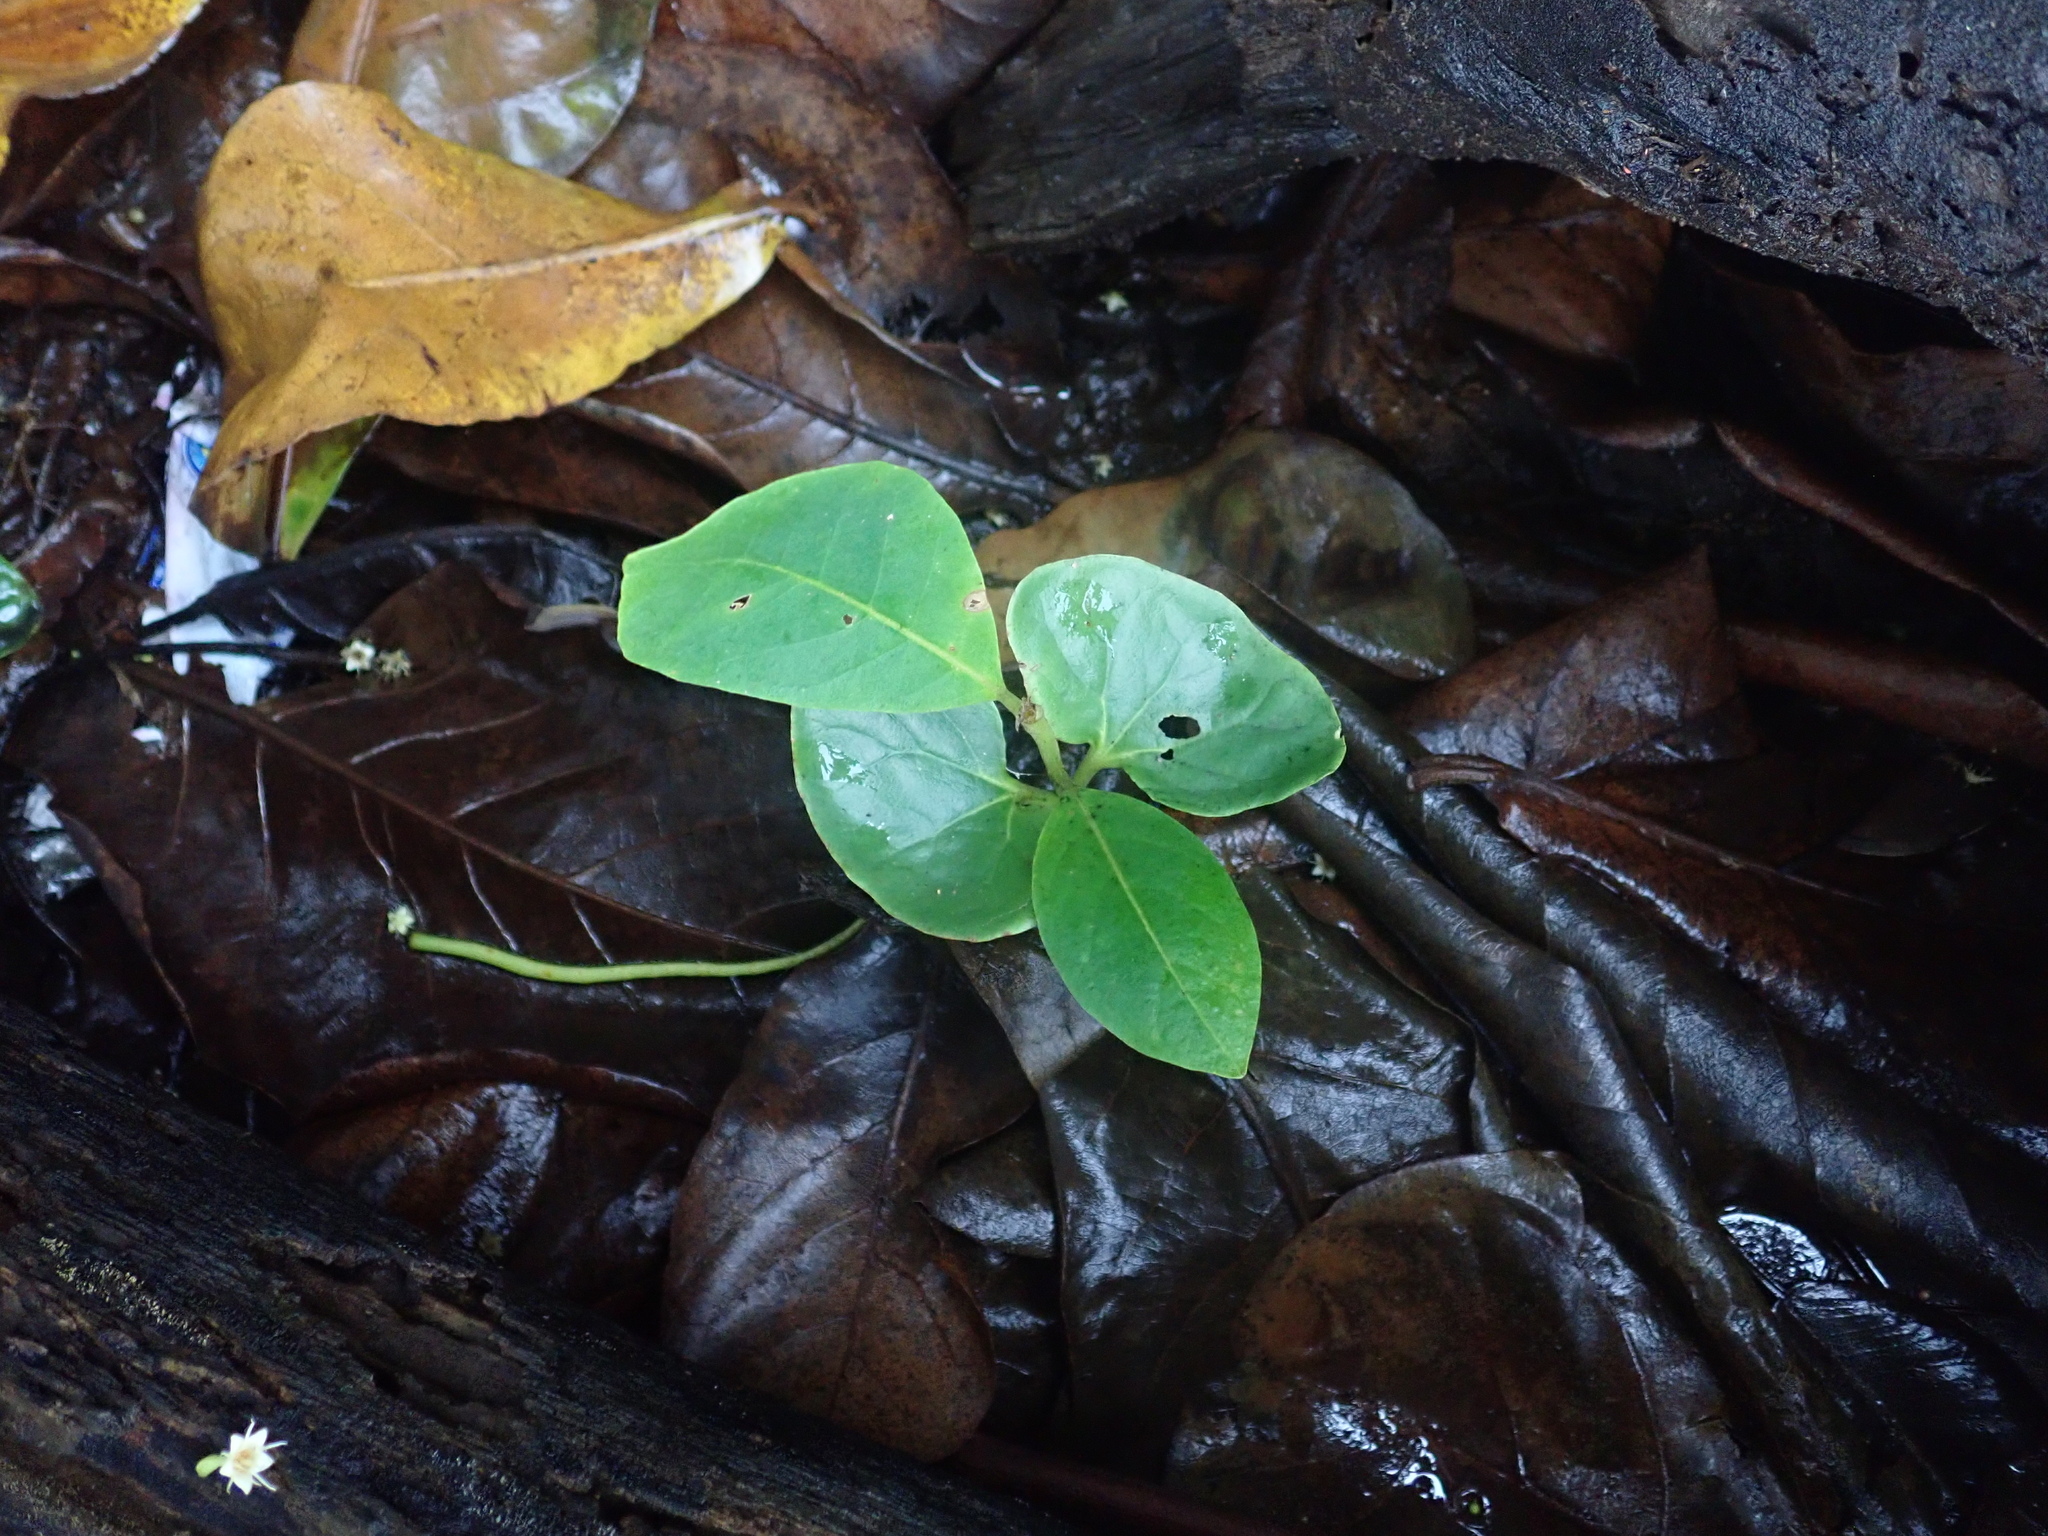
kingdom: Plantae
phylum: Tracheophyta
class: Magnoliopsida
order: Myrtales
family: Combretaceae
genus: Terminalia
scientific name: Terminalia catappa
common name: Tropical almond
